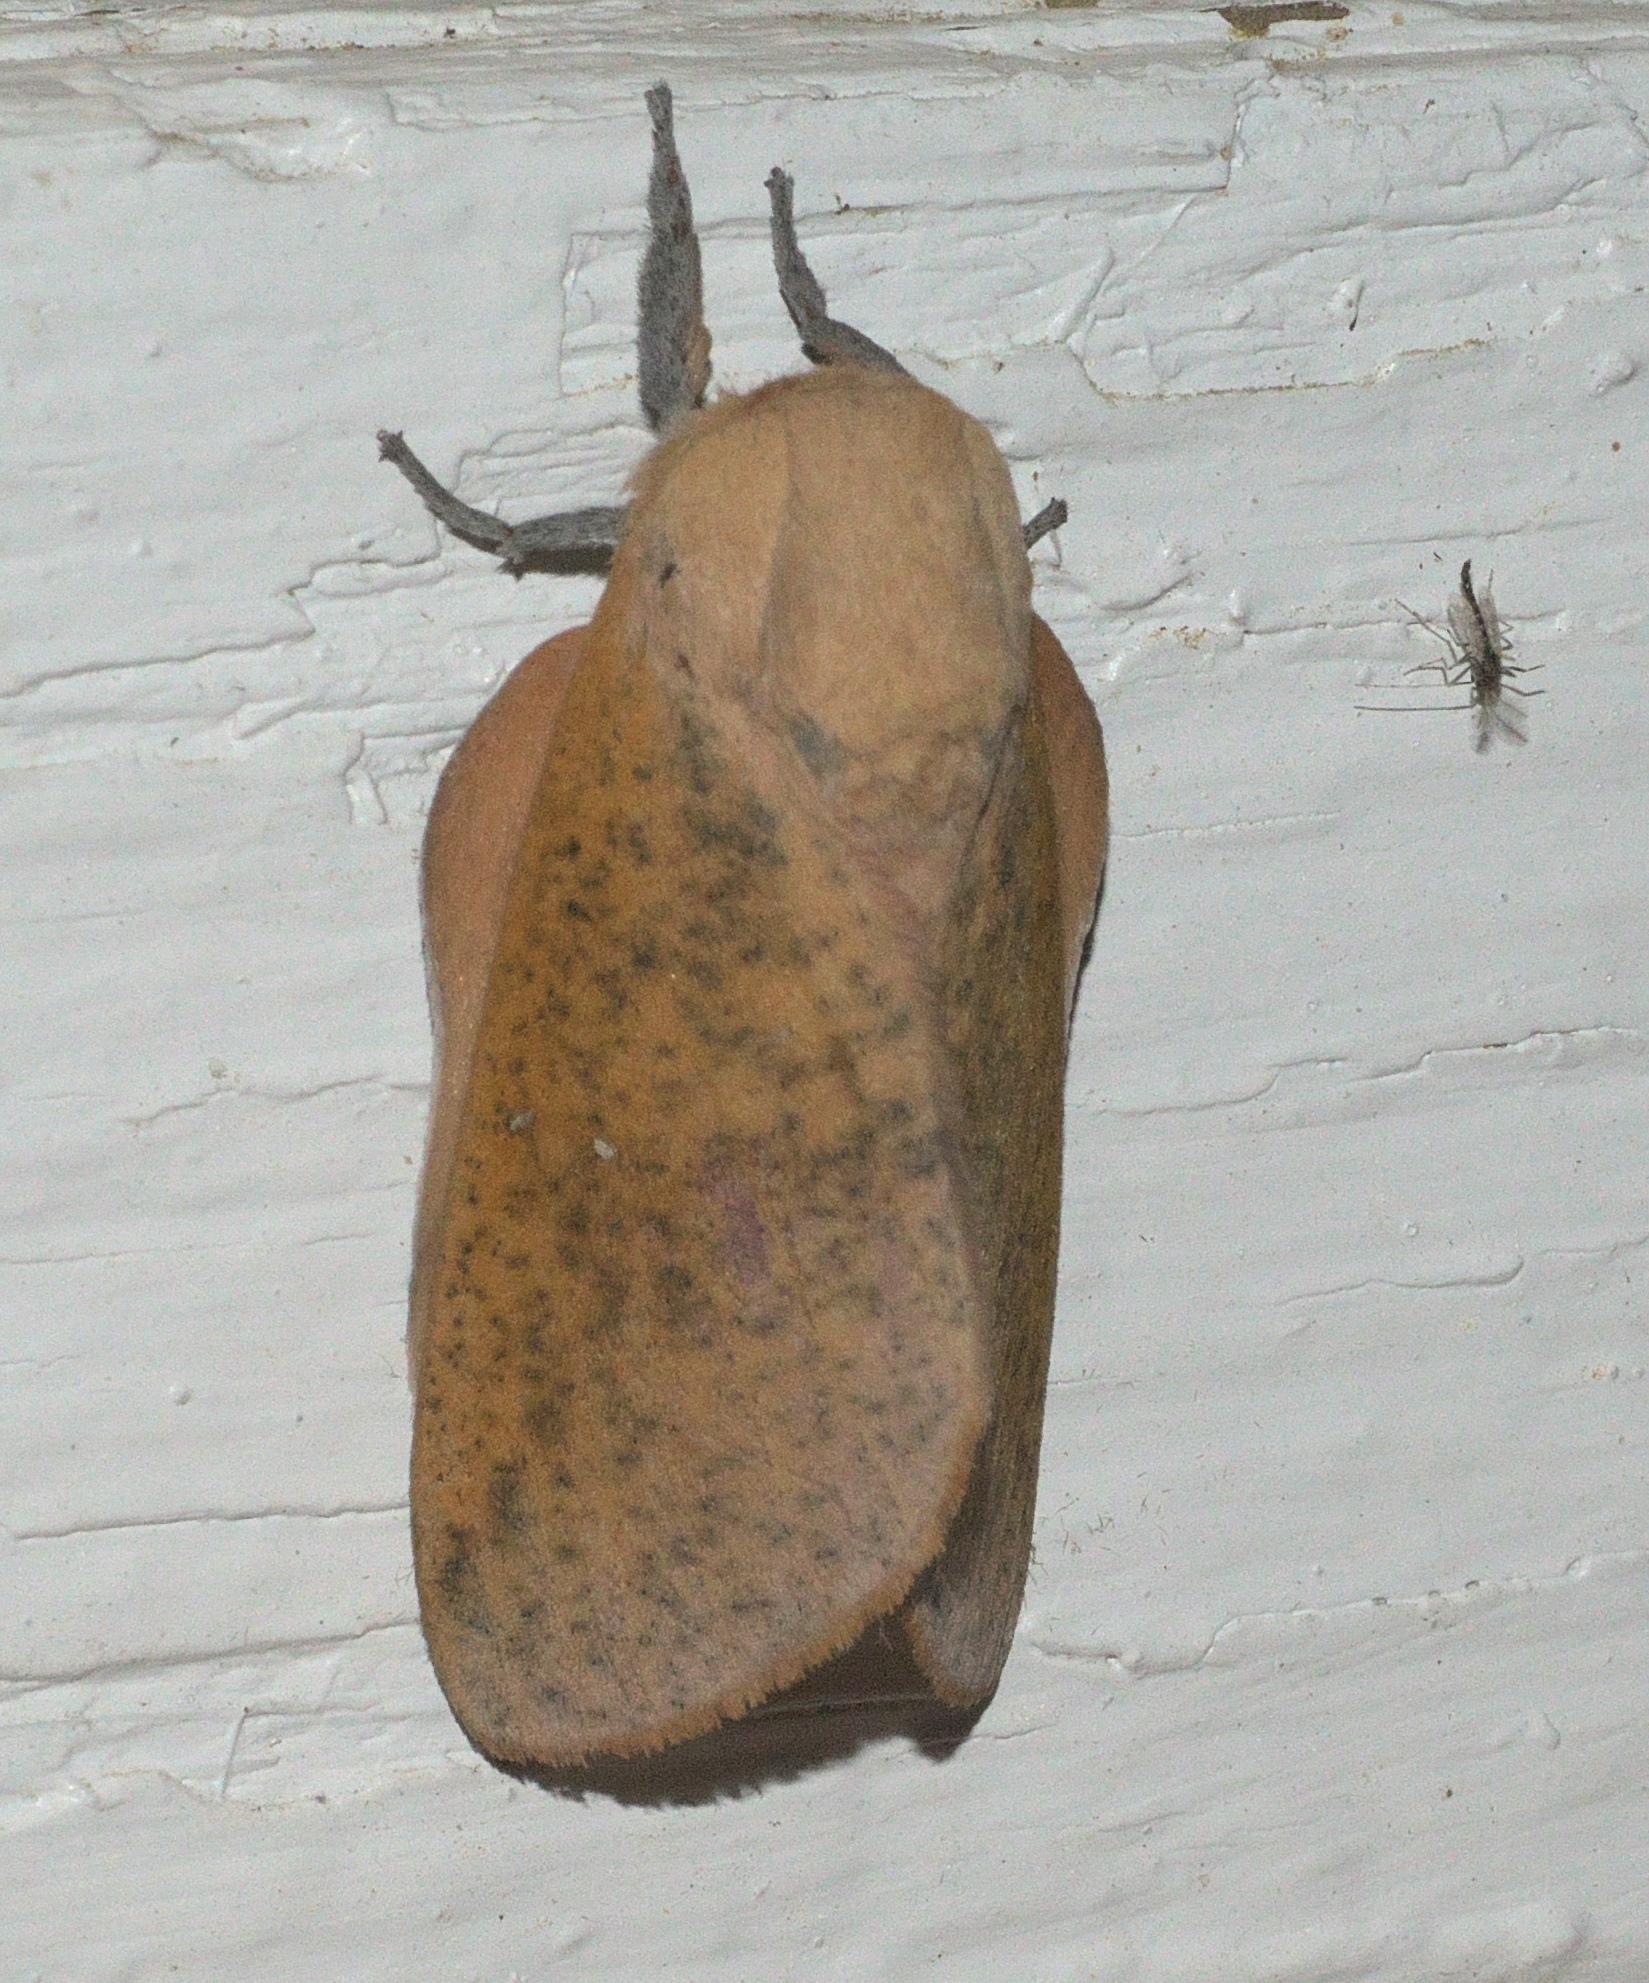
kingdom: Animalia
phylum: Arthropoda
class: Insecta
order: Lepidoptera
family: Saturniidae
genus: Syssphinx
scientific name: Syssphinx bicolor
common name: Honey locust moth
